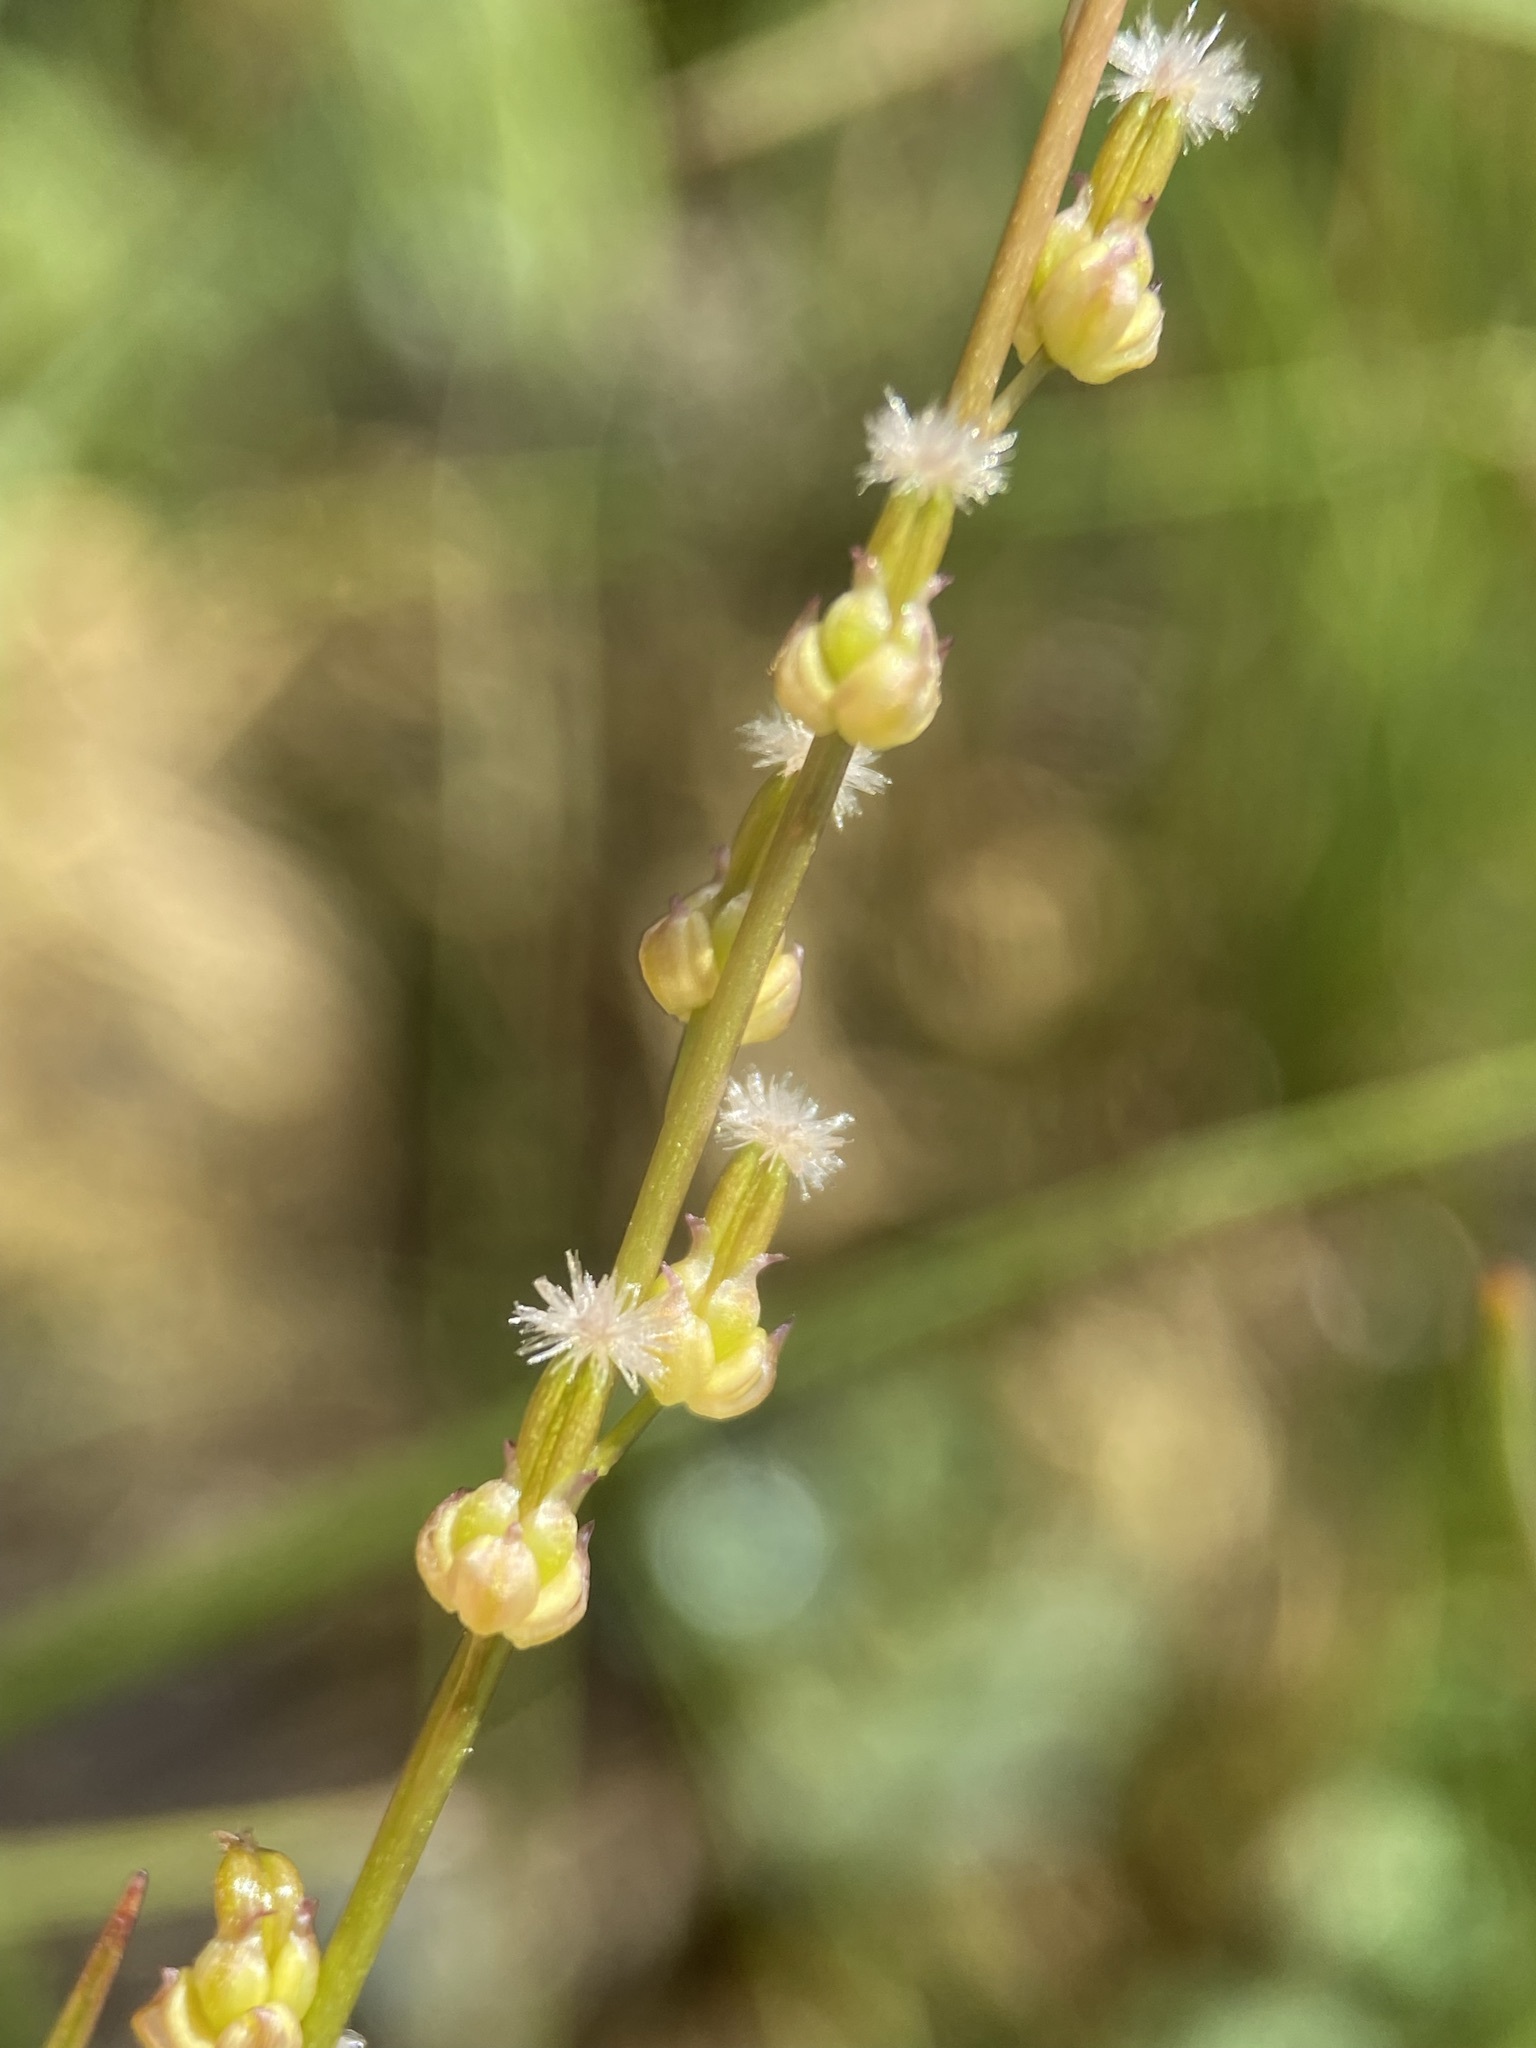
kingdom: Plantae
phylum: Tracheophyta
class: Liliopsida
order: Alismatales
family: Juncaginaceae
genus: Triglochin
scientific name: Triglochin palustris
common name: Marsh arrowgrass
